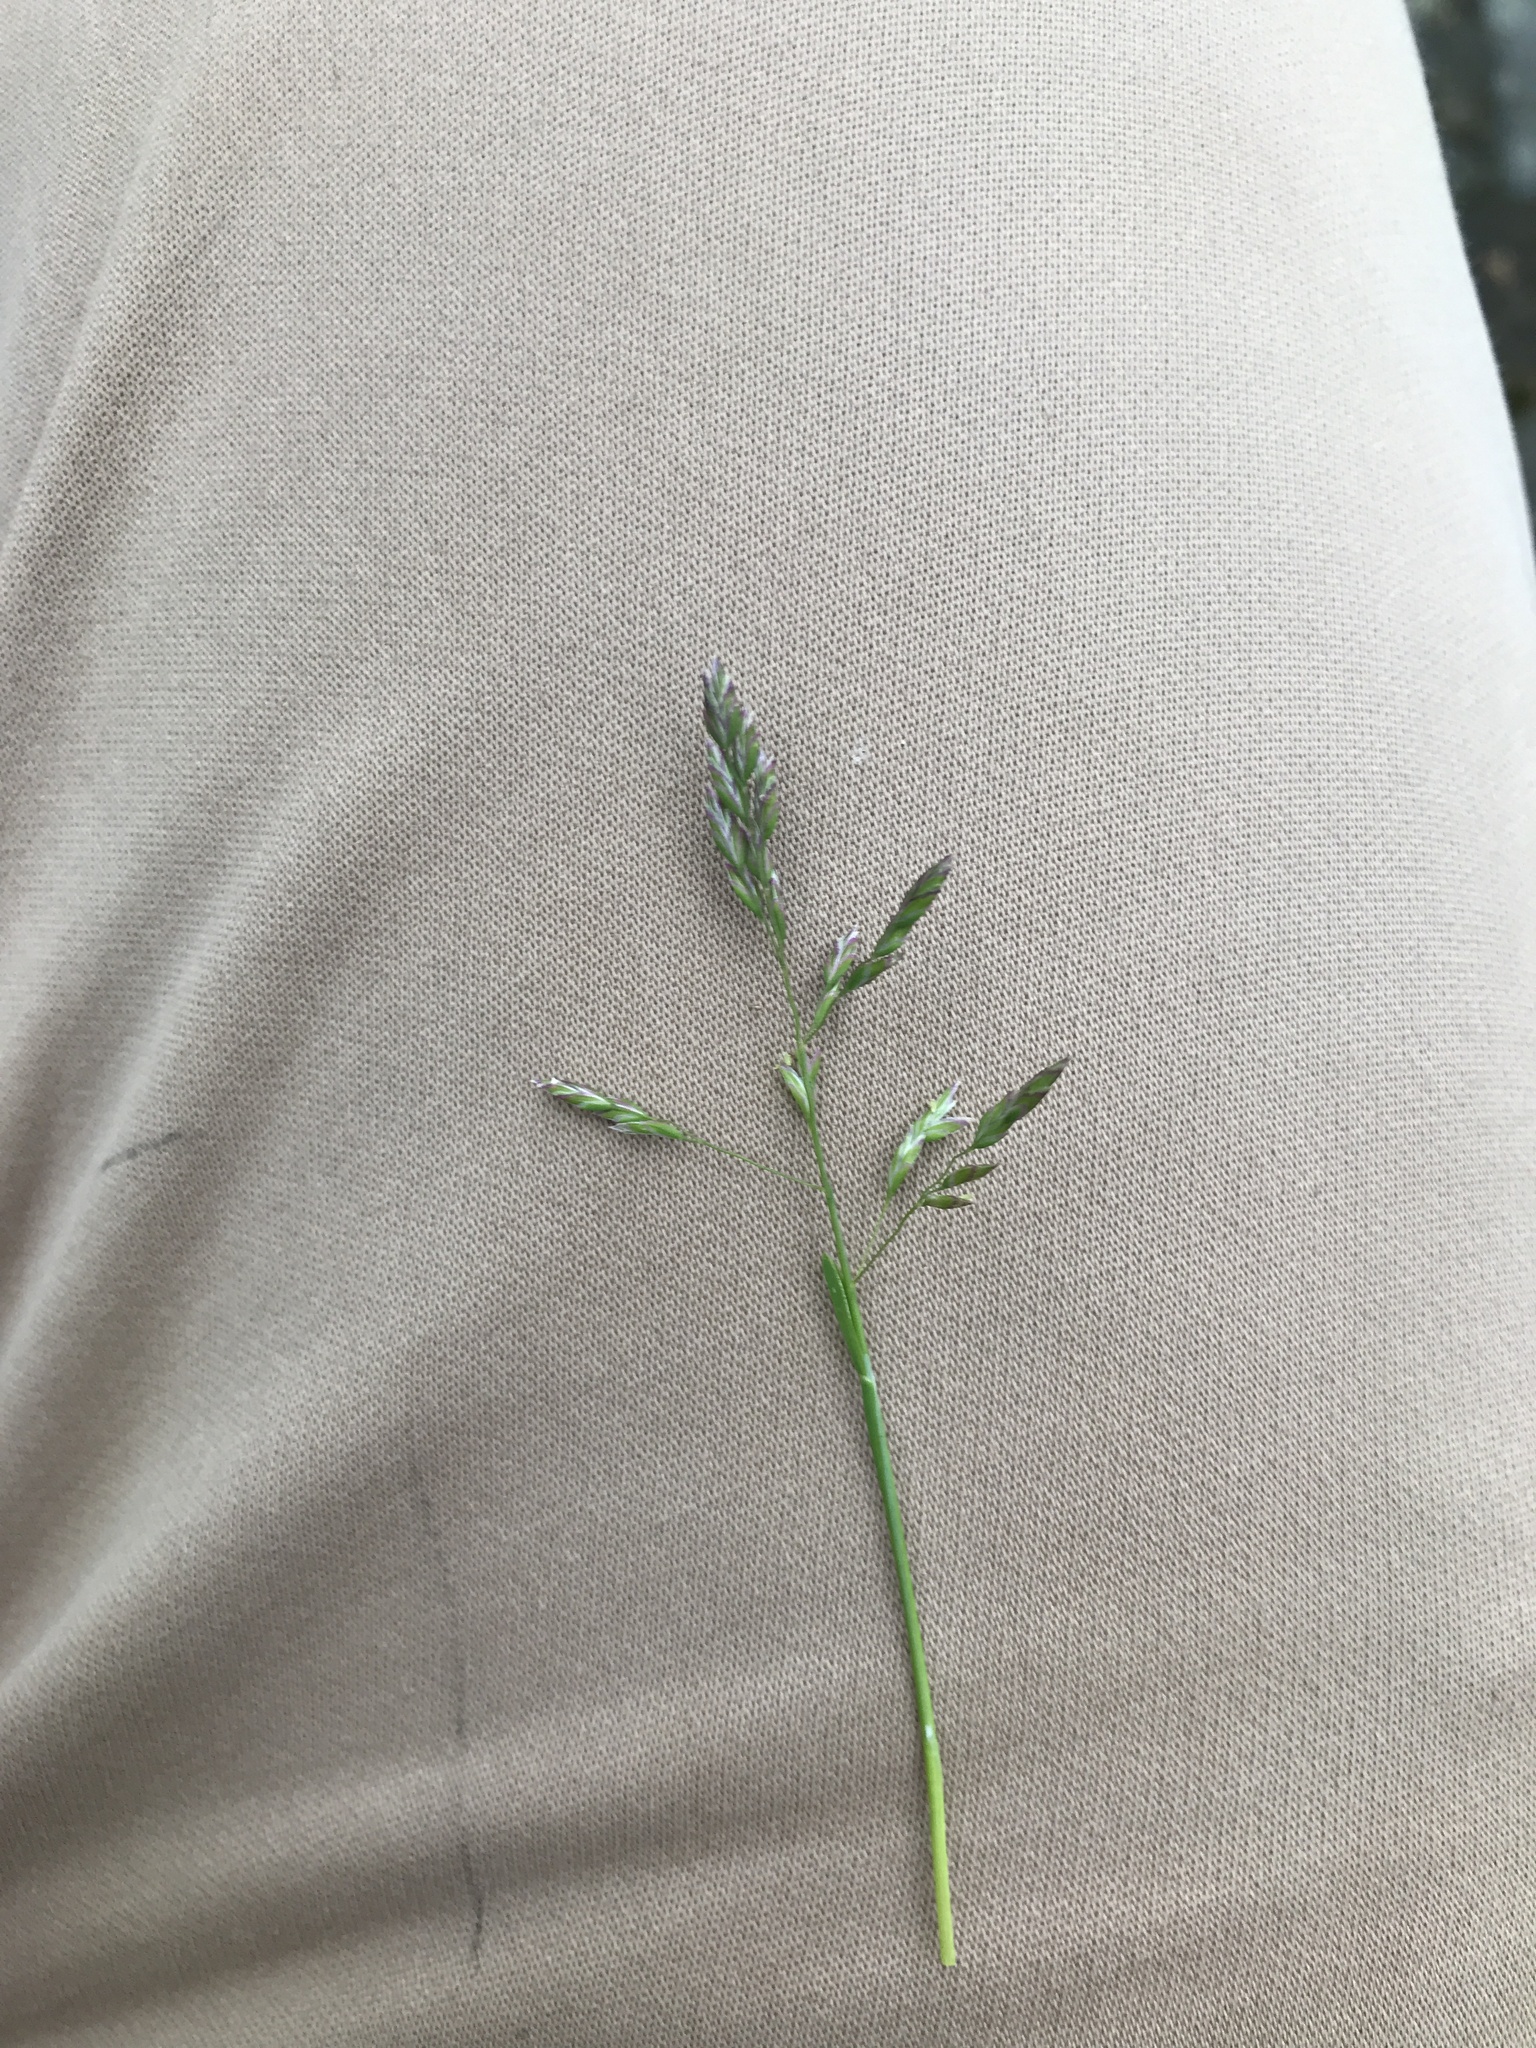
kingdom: Plantae
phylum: Tracheophyta
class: Liliopsida
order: Poales
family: Poaceae
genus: Poa
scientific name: Poa annua
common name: Annual bluegrass
